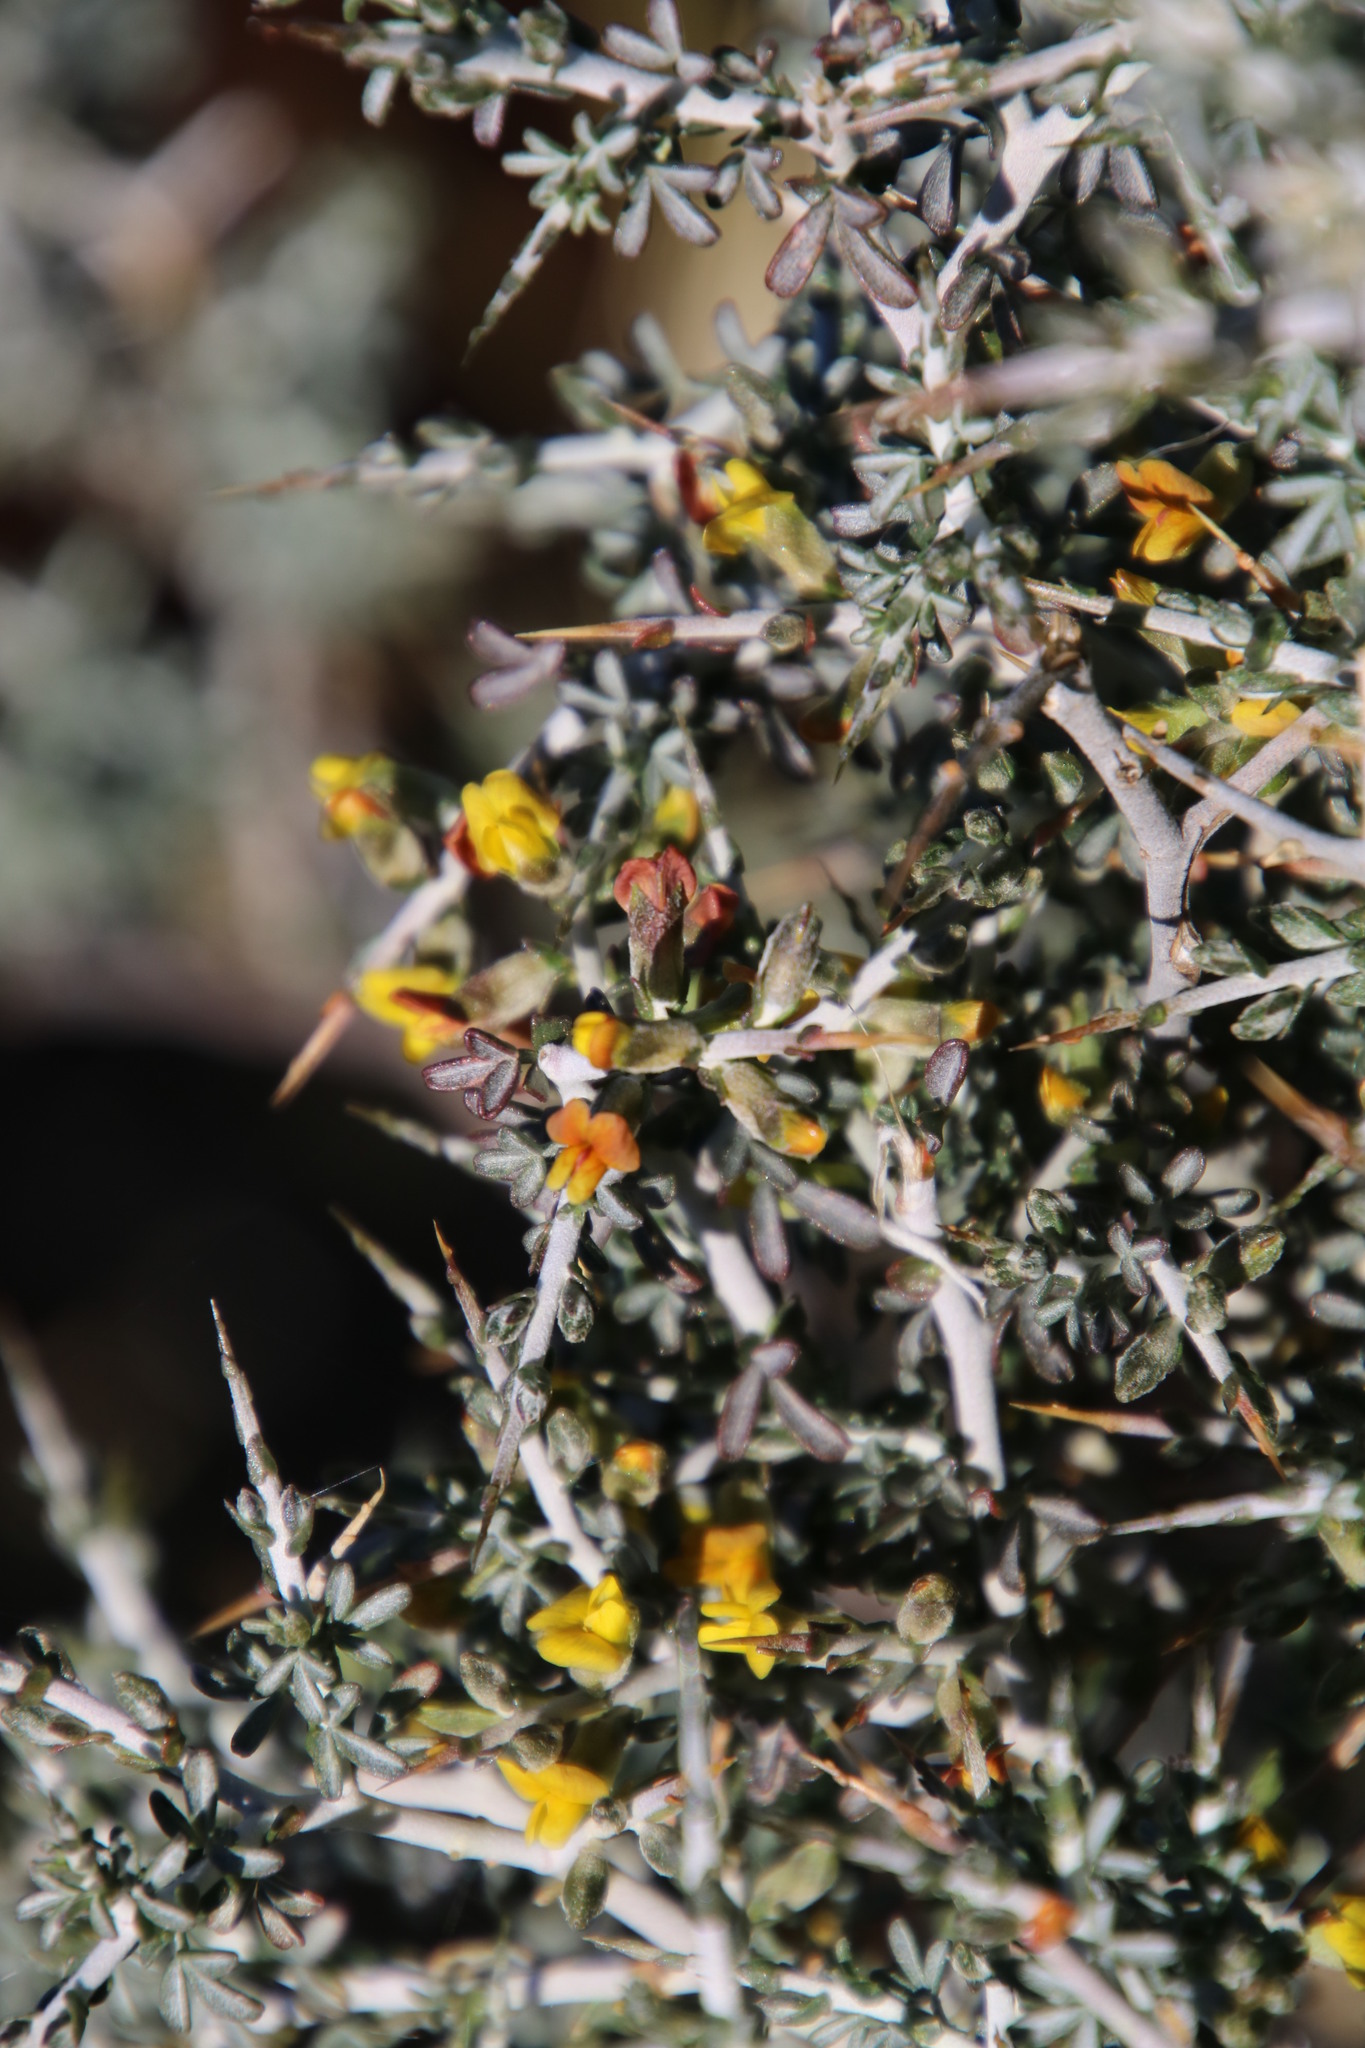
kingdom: Plantae
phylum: Tracheophyta
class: Magnoliopsida
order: Fabales
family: Fabaceae
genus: Melolobium
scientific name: Melolobium candicans
